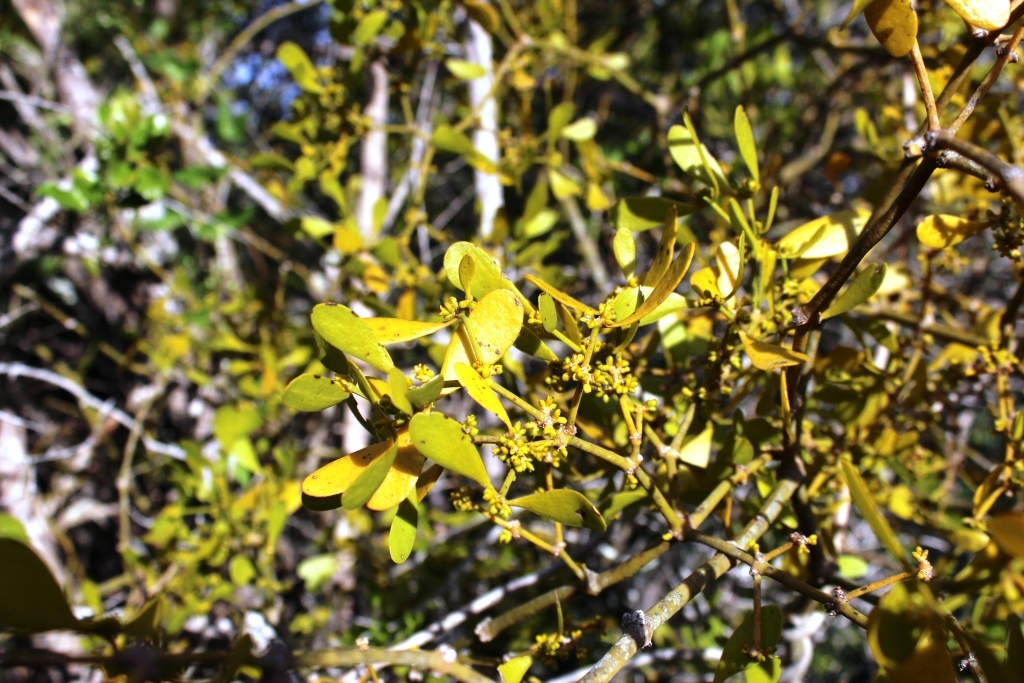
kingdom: Plantae
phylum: Tracheophyta
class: Magnoliopsida
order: Santalales
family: Viscaceae
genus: Viscum
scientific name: Viscum obscurum
